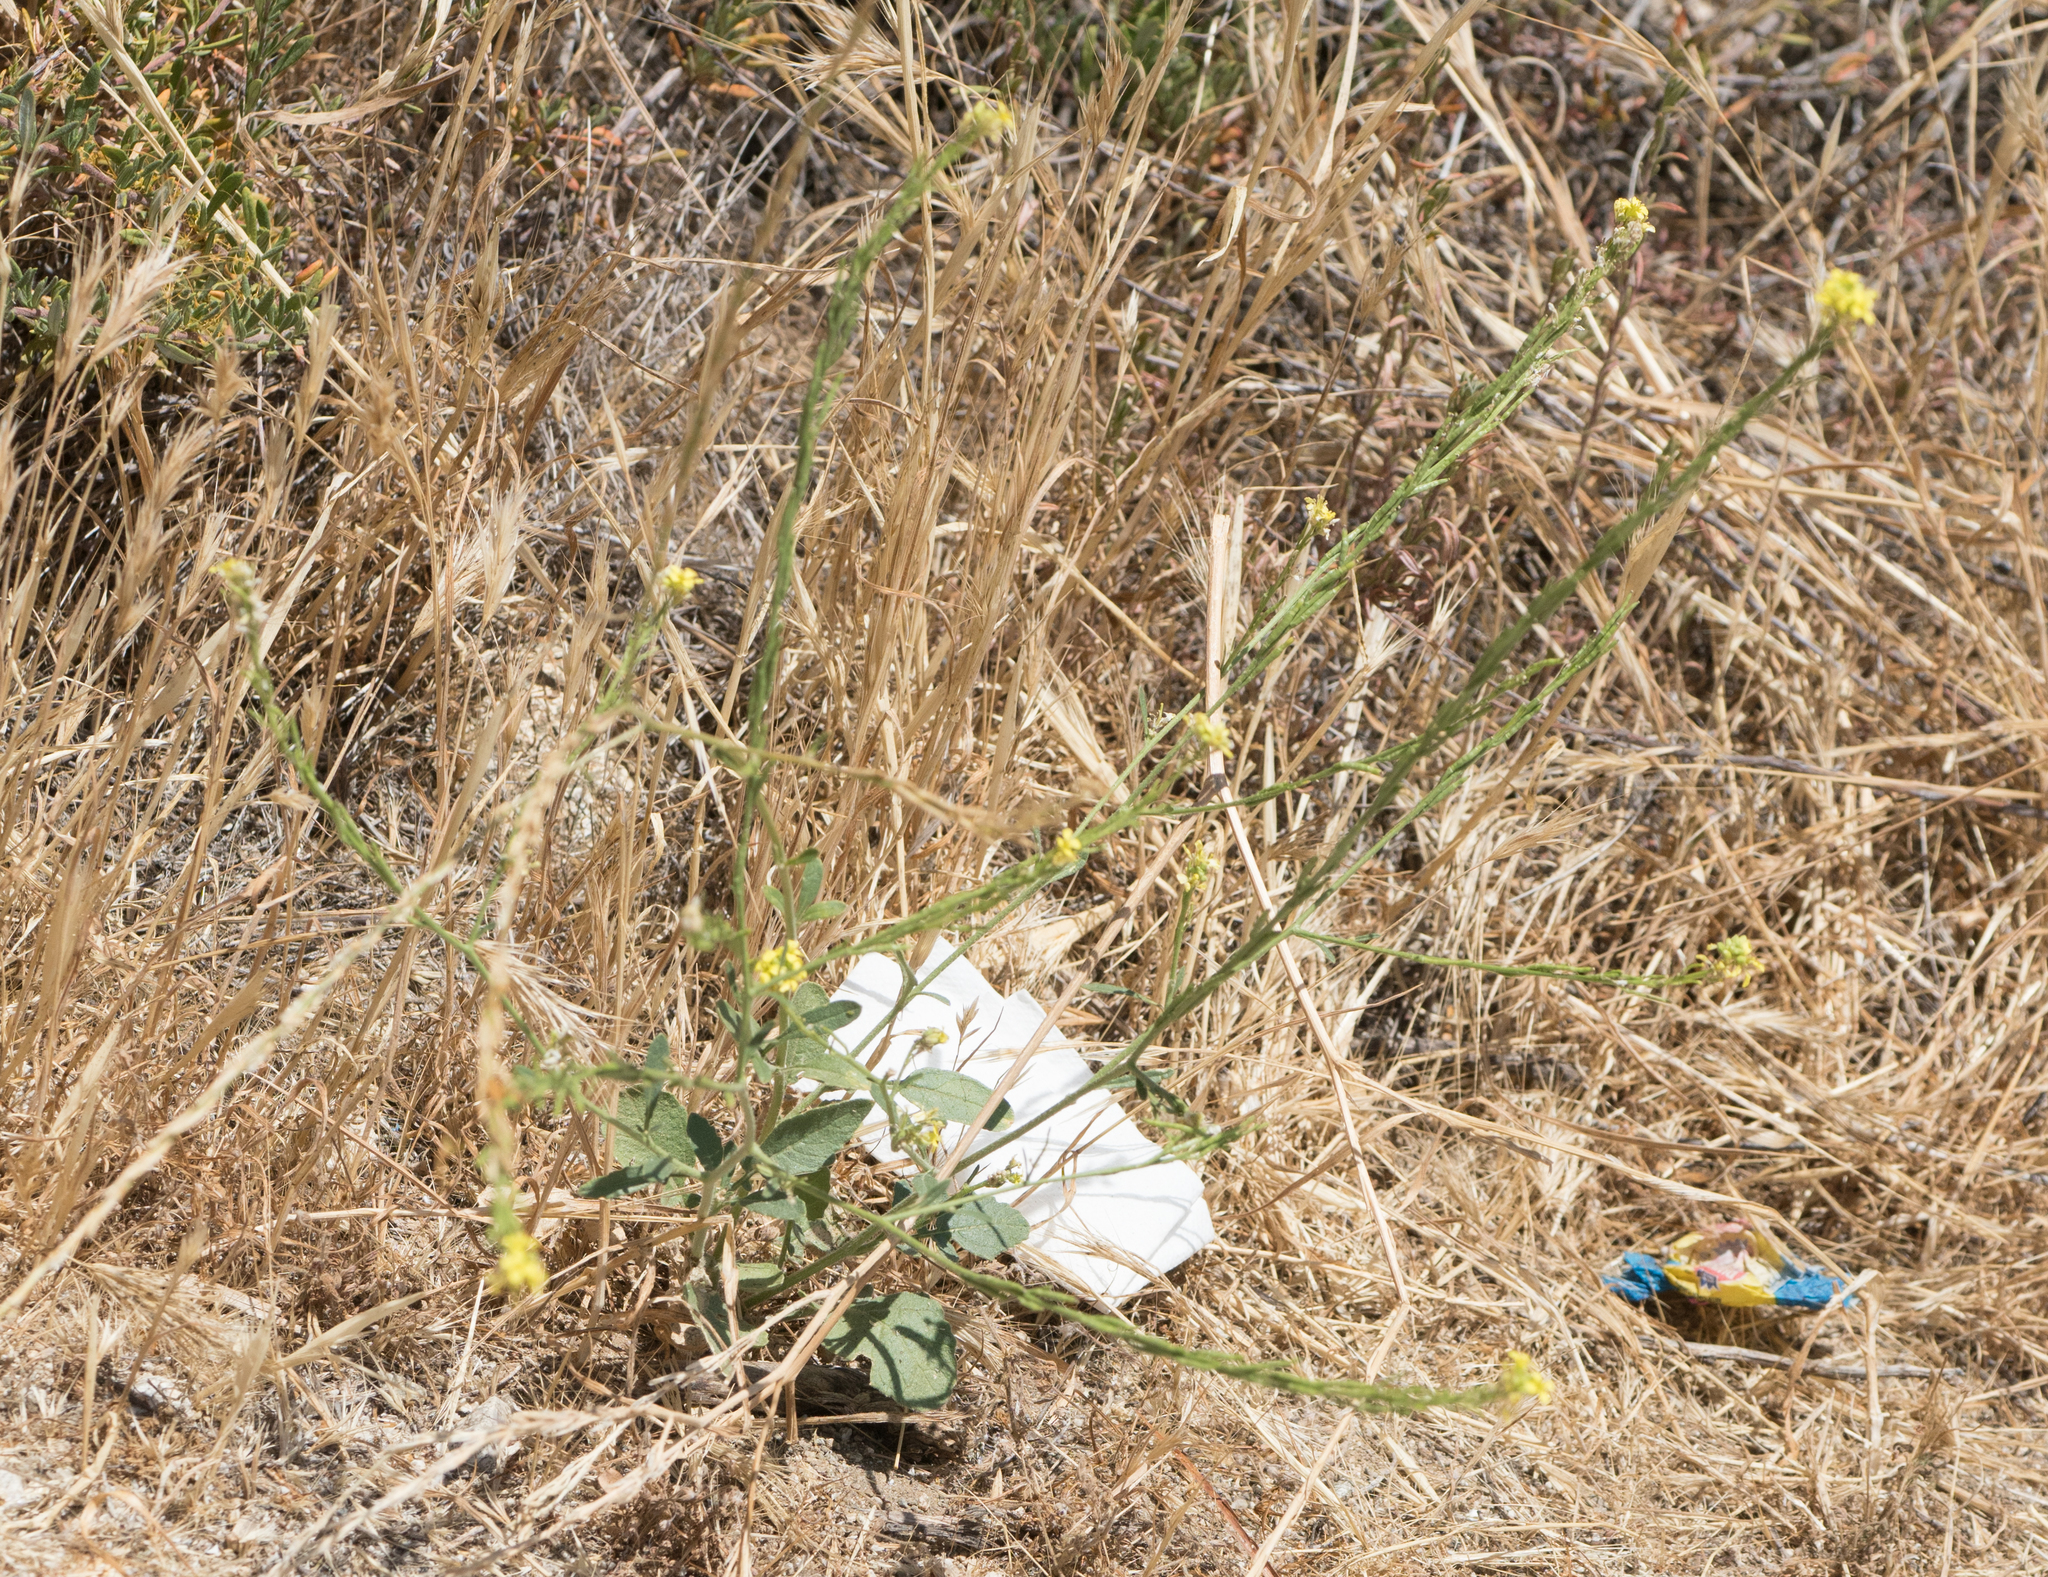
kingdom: Plantae
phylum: Tracheophyta
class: Magnoliopsida
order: Brassicales
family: Brassicaceae
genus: Hirschfeldia
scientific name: Hirschfeldia incana
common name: Hoary mustard
